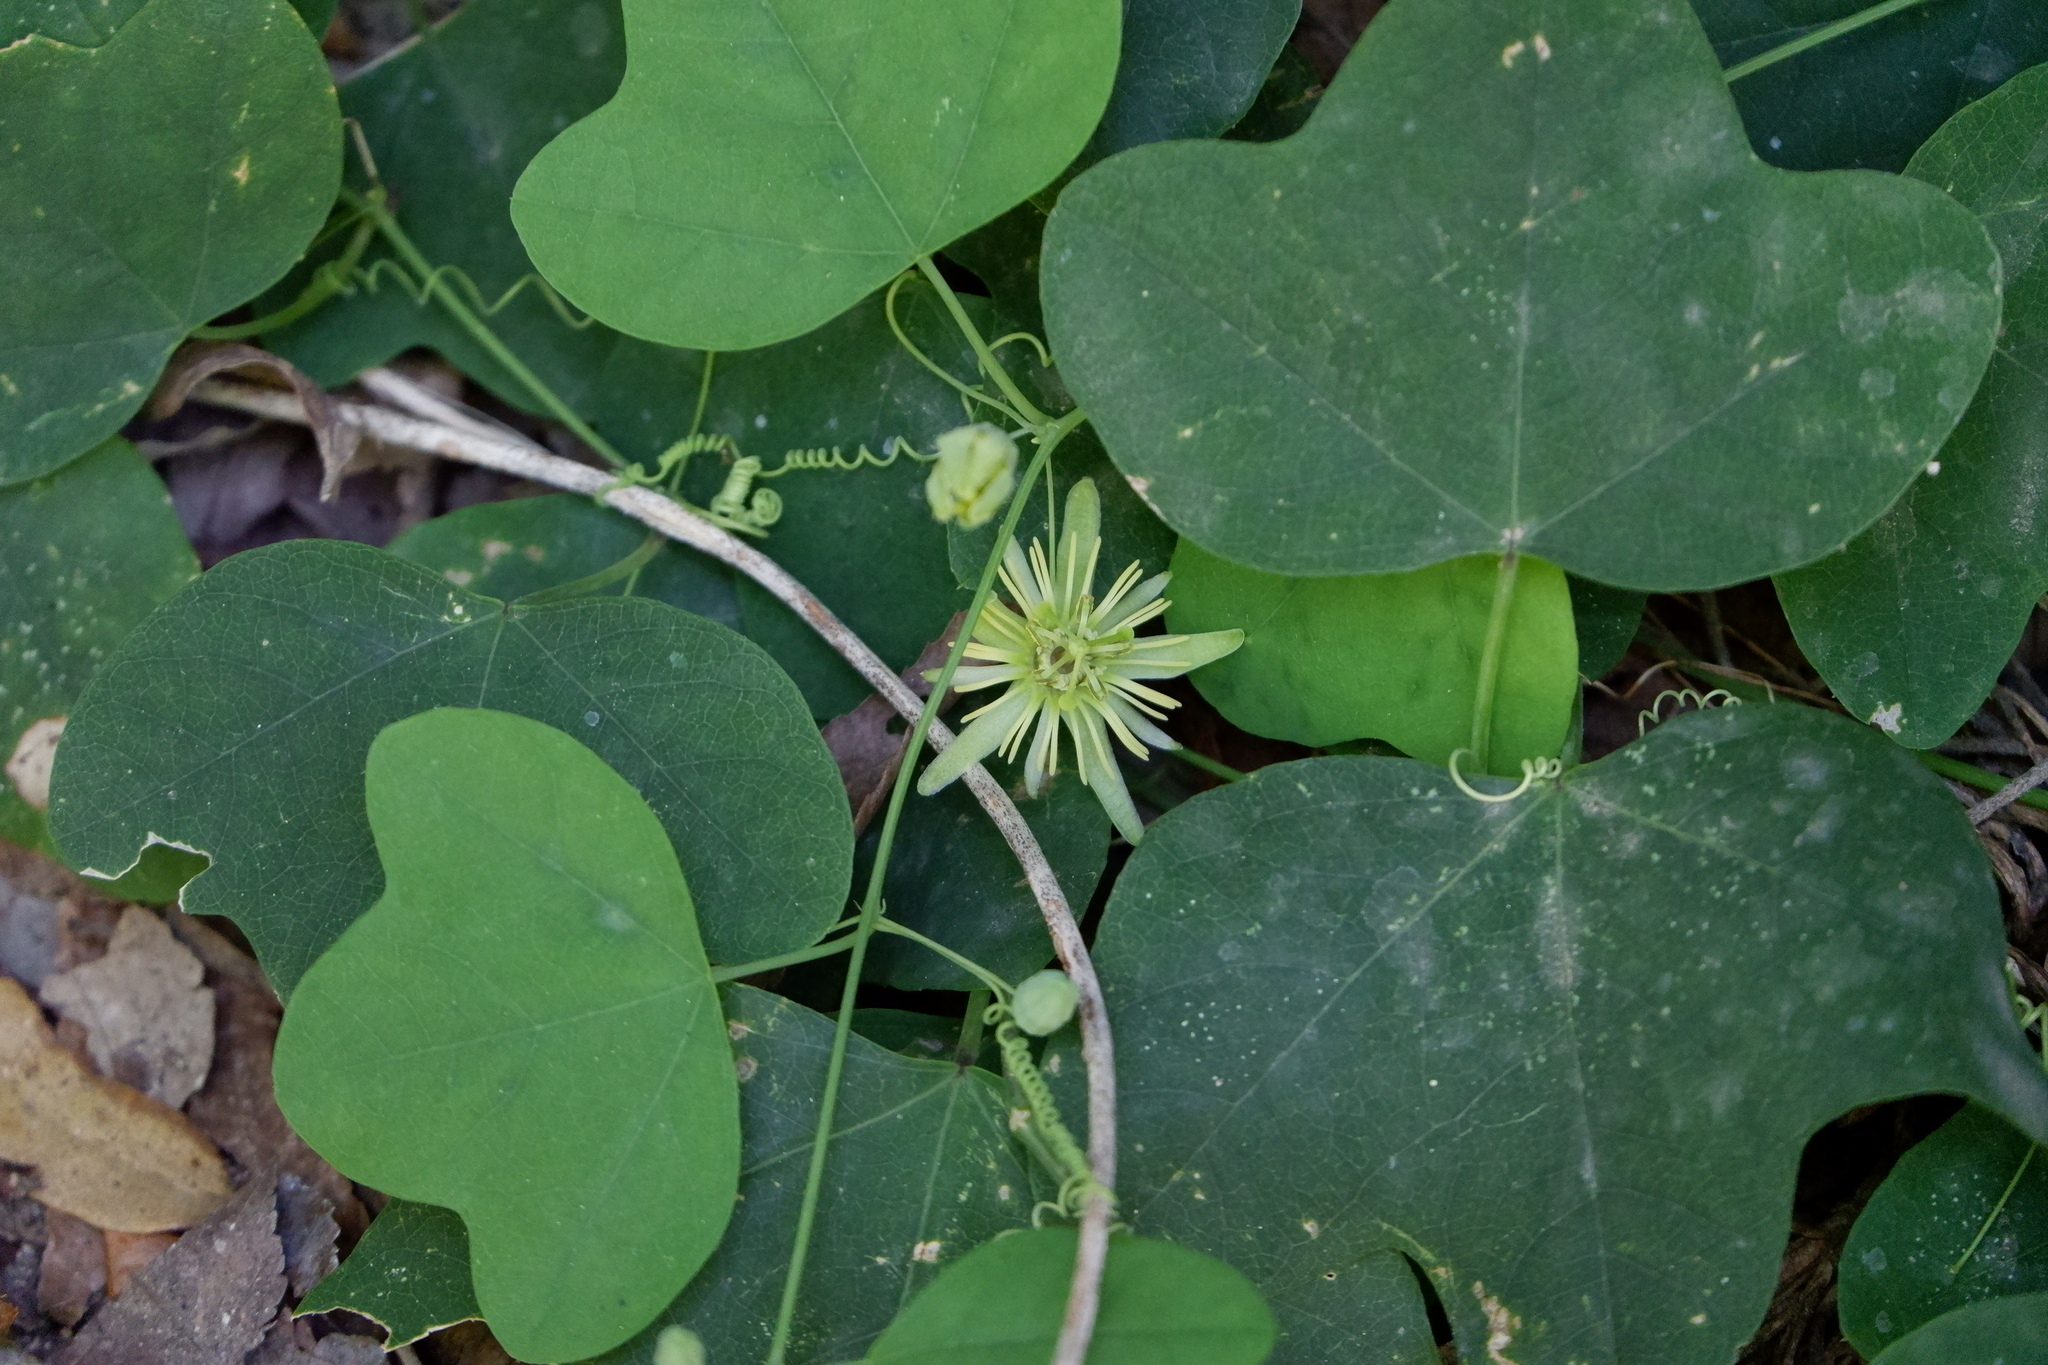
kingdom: Plantae
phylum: Tracheophyta
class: Magnoliopsida
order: Malpighiales
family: Passifloraceae
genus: Passiflora
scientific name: Passiflora lutea
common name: Yellow passionflower
